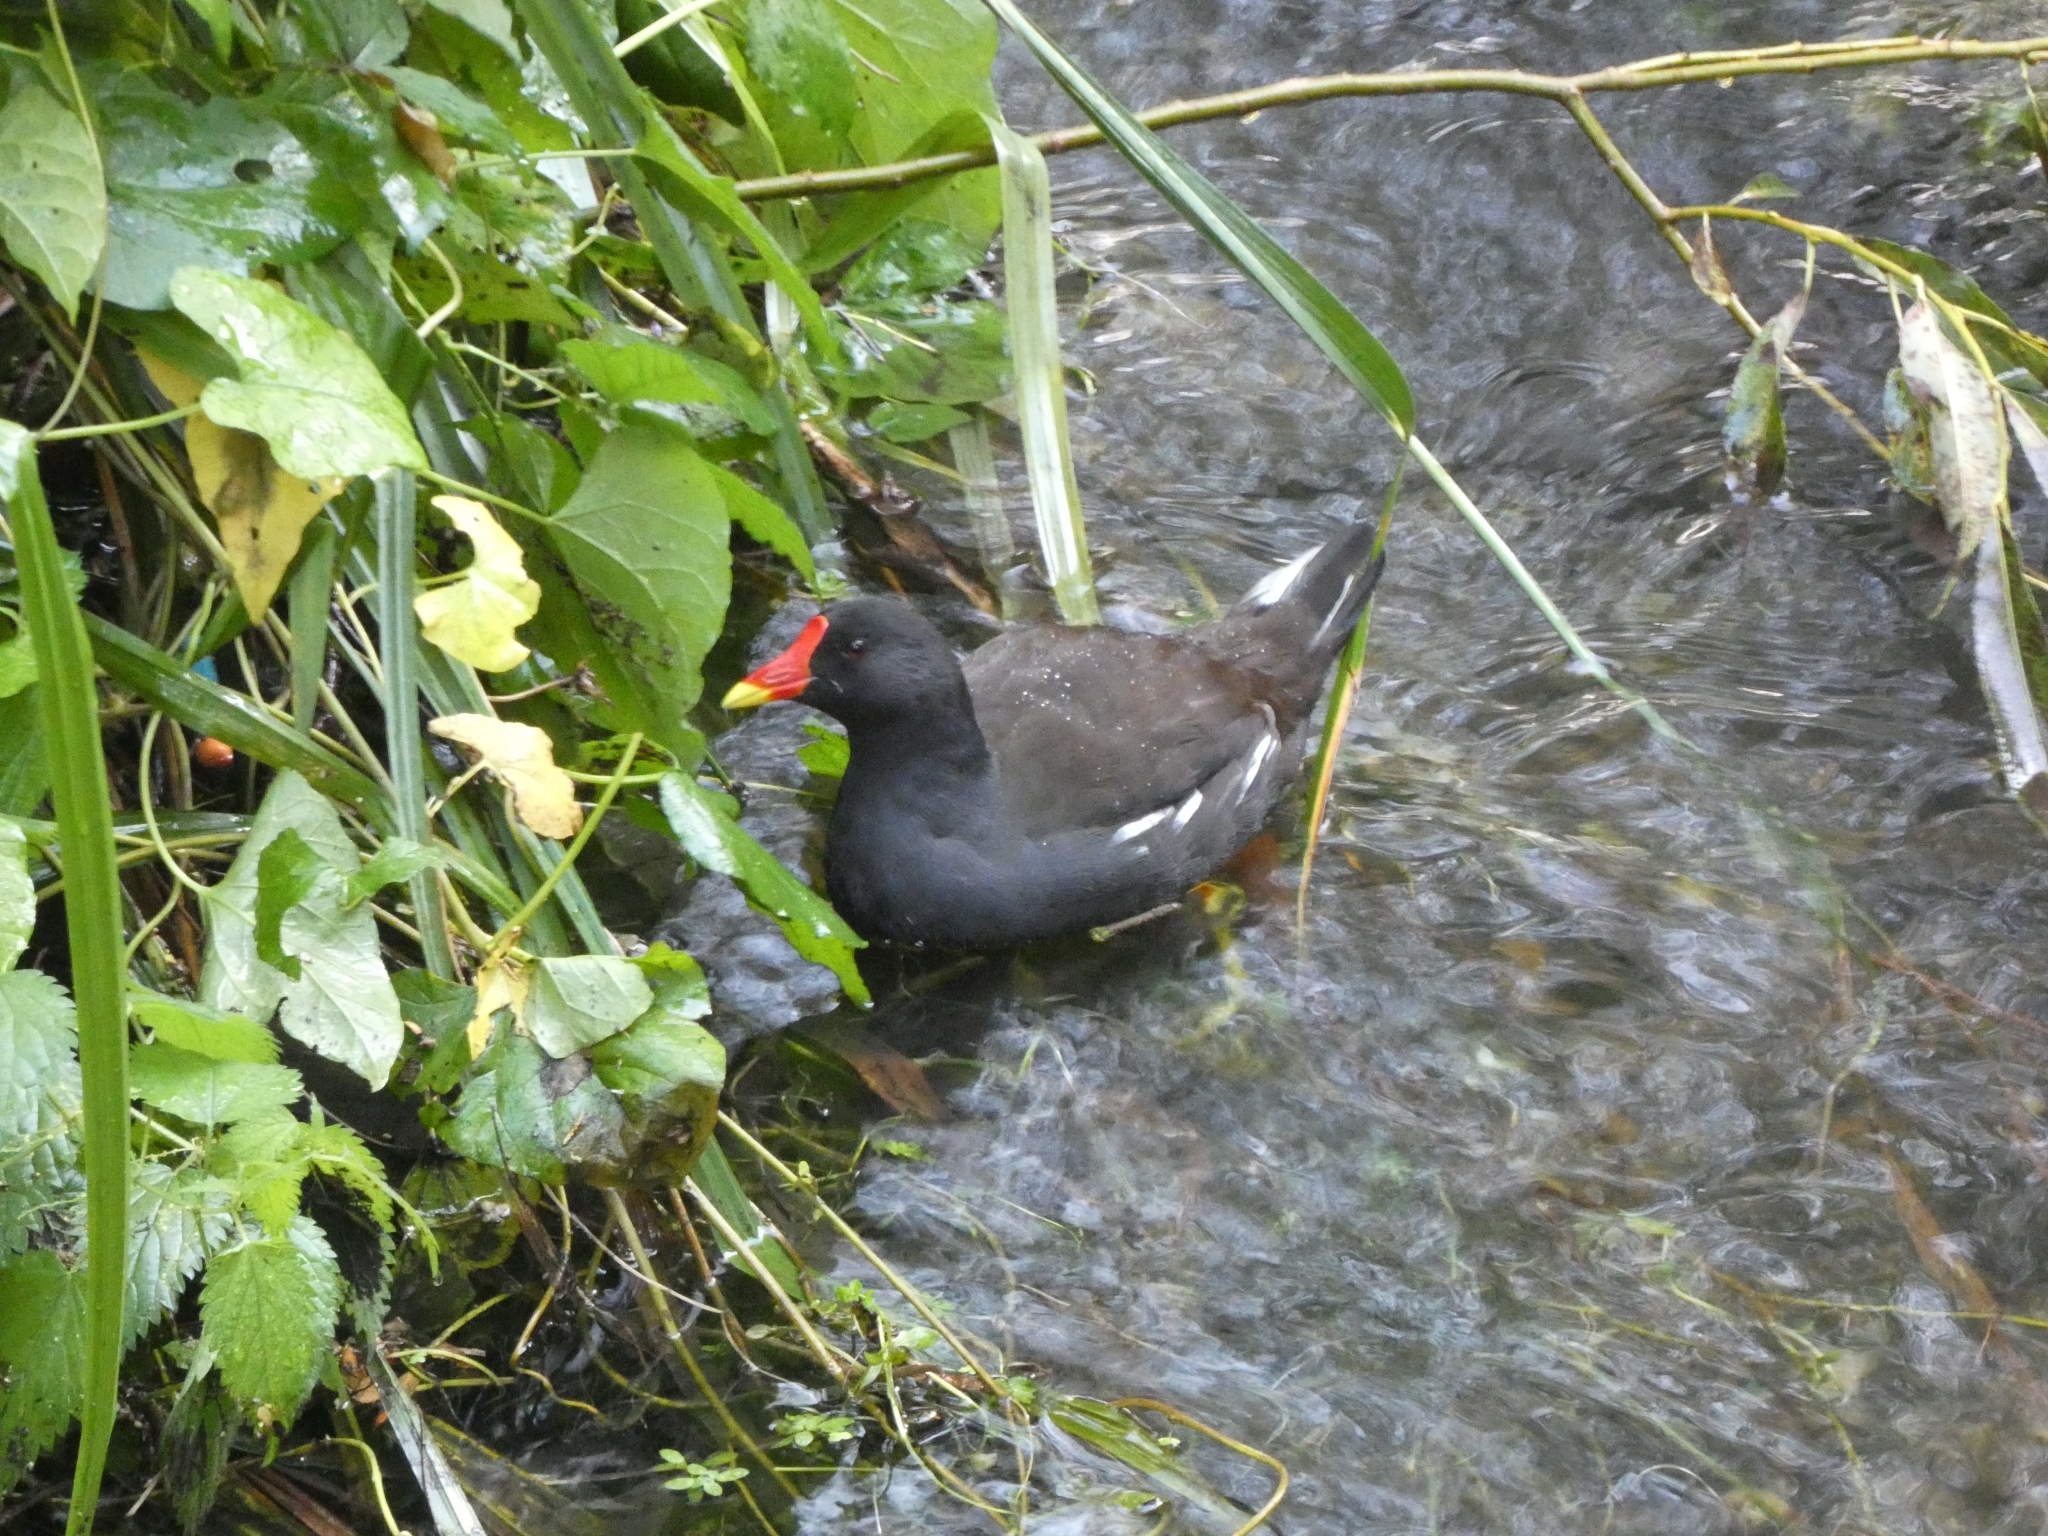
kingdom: Animalia
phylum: Chordata
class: Aves
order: Gruiformes
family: Rallidae
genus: Gallinula
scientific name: Gallinula chloropus
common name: Common moorhen
